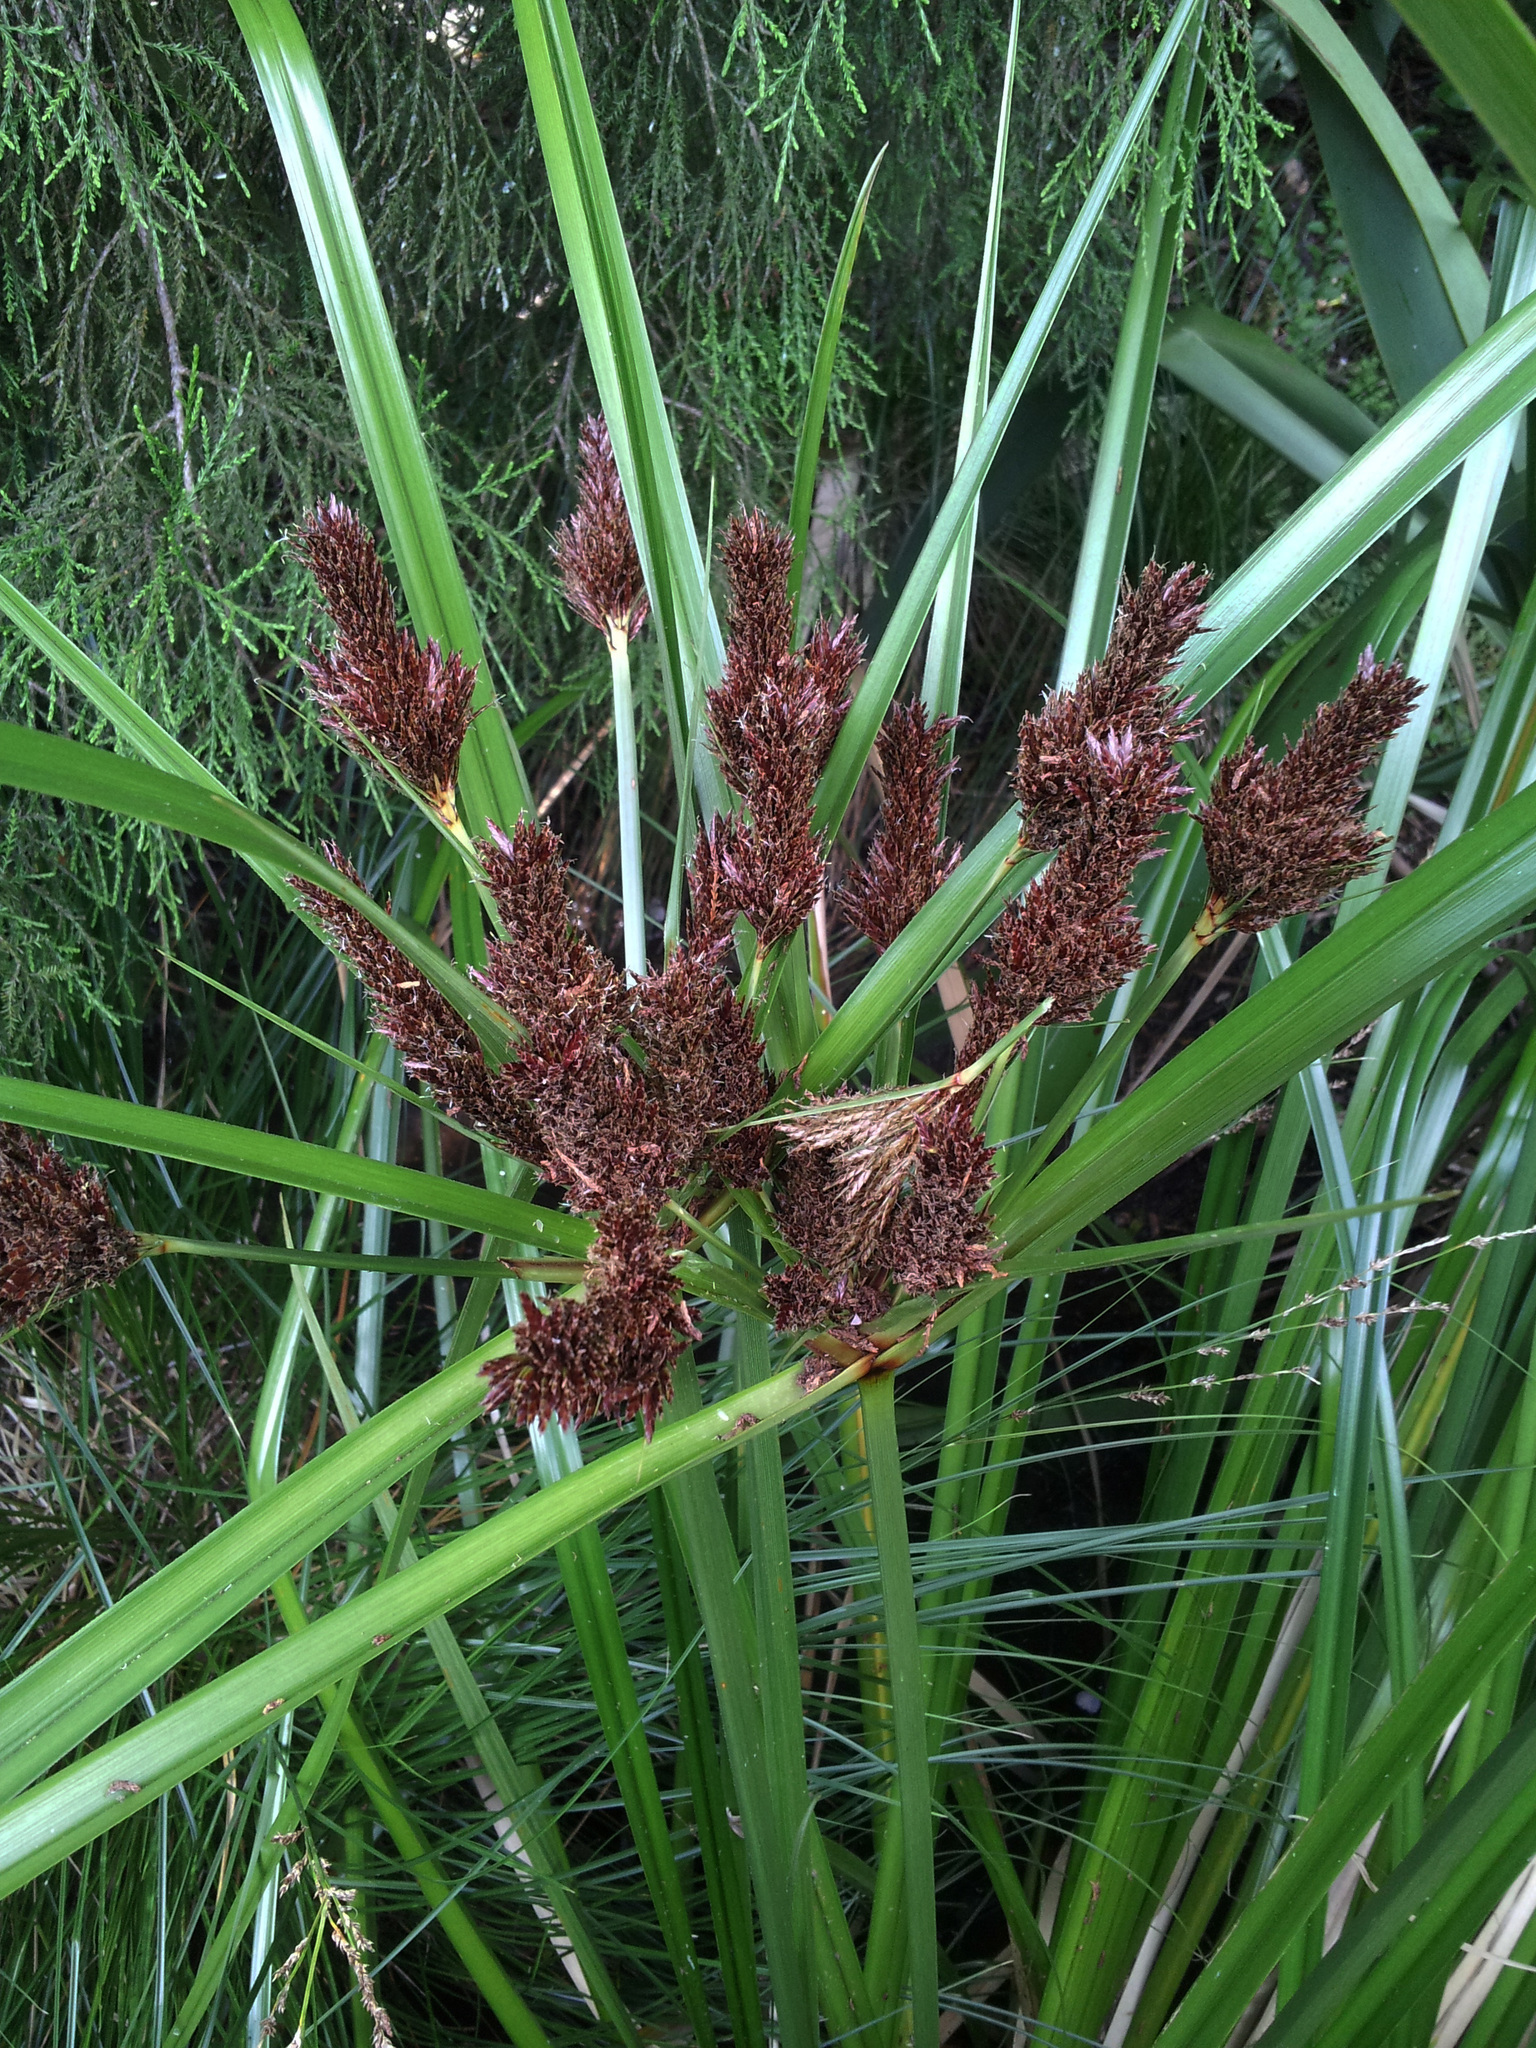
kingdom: Plantae
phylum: Tracheophyta
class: Liliopsida
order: Poales
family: Cyperaceae
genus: Cyperus
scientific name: Cyperus ustulatus
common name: Giant umbrella-sedge
